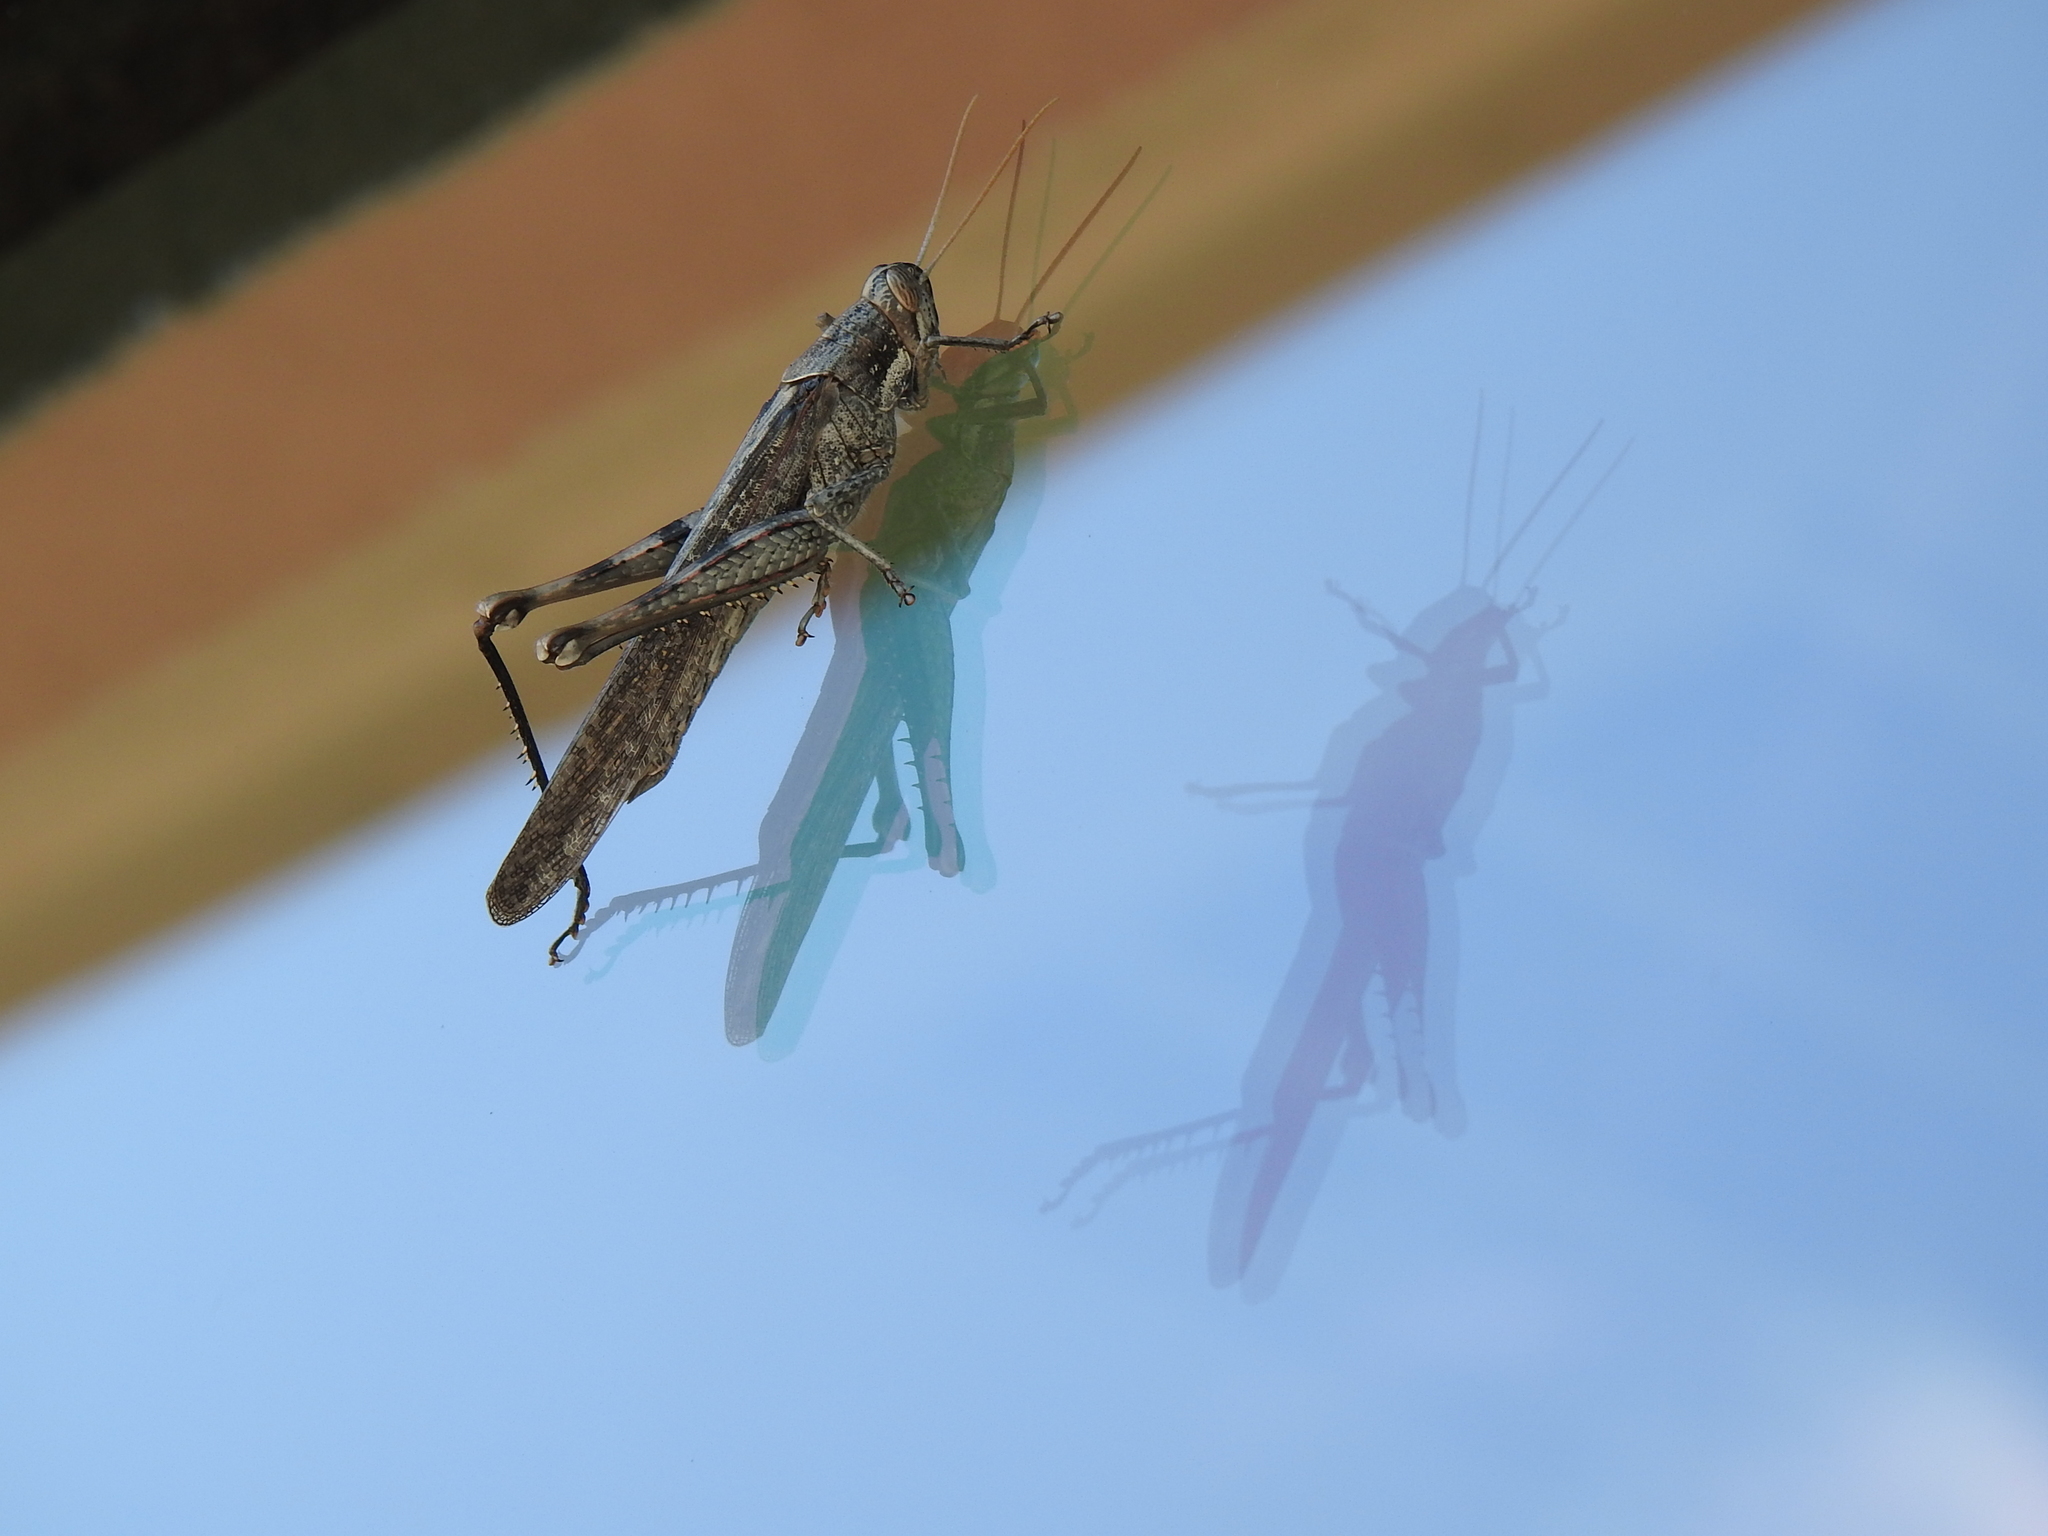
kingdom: Animalia
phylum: Arthropoda
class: Insecta
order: Orthoptera
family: Acrididae
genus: Schistocerca
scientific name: Schistocerca nitens
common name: Vagrant grasshopper
